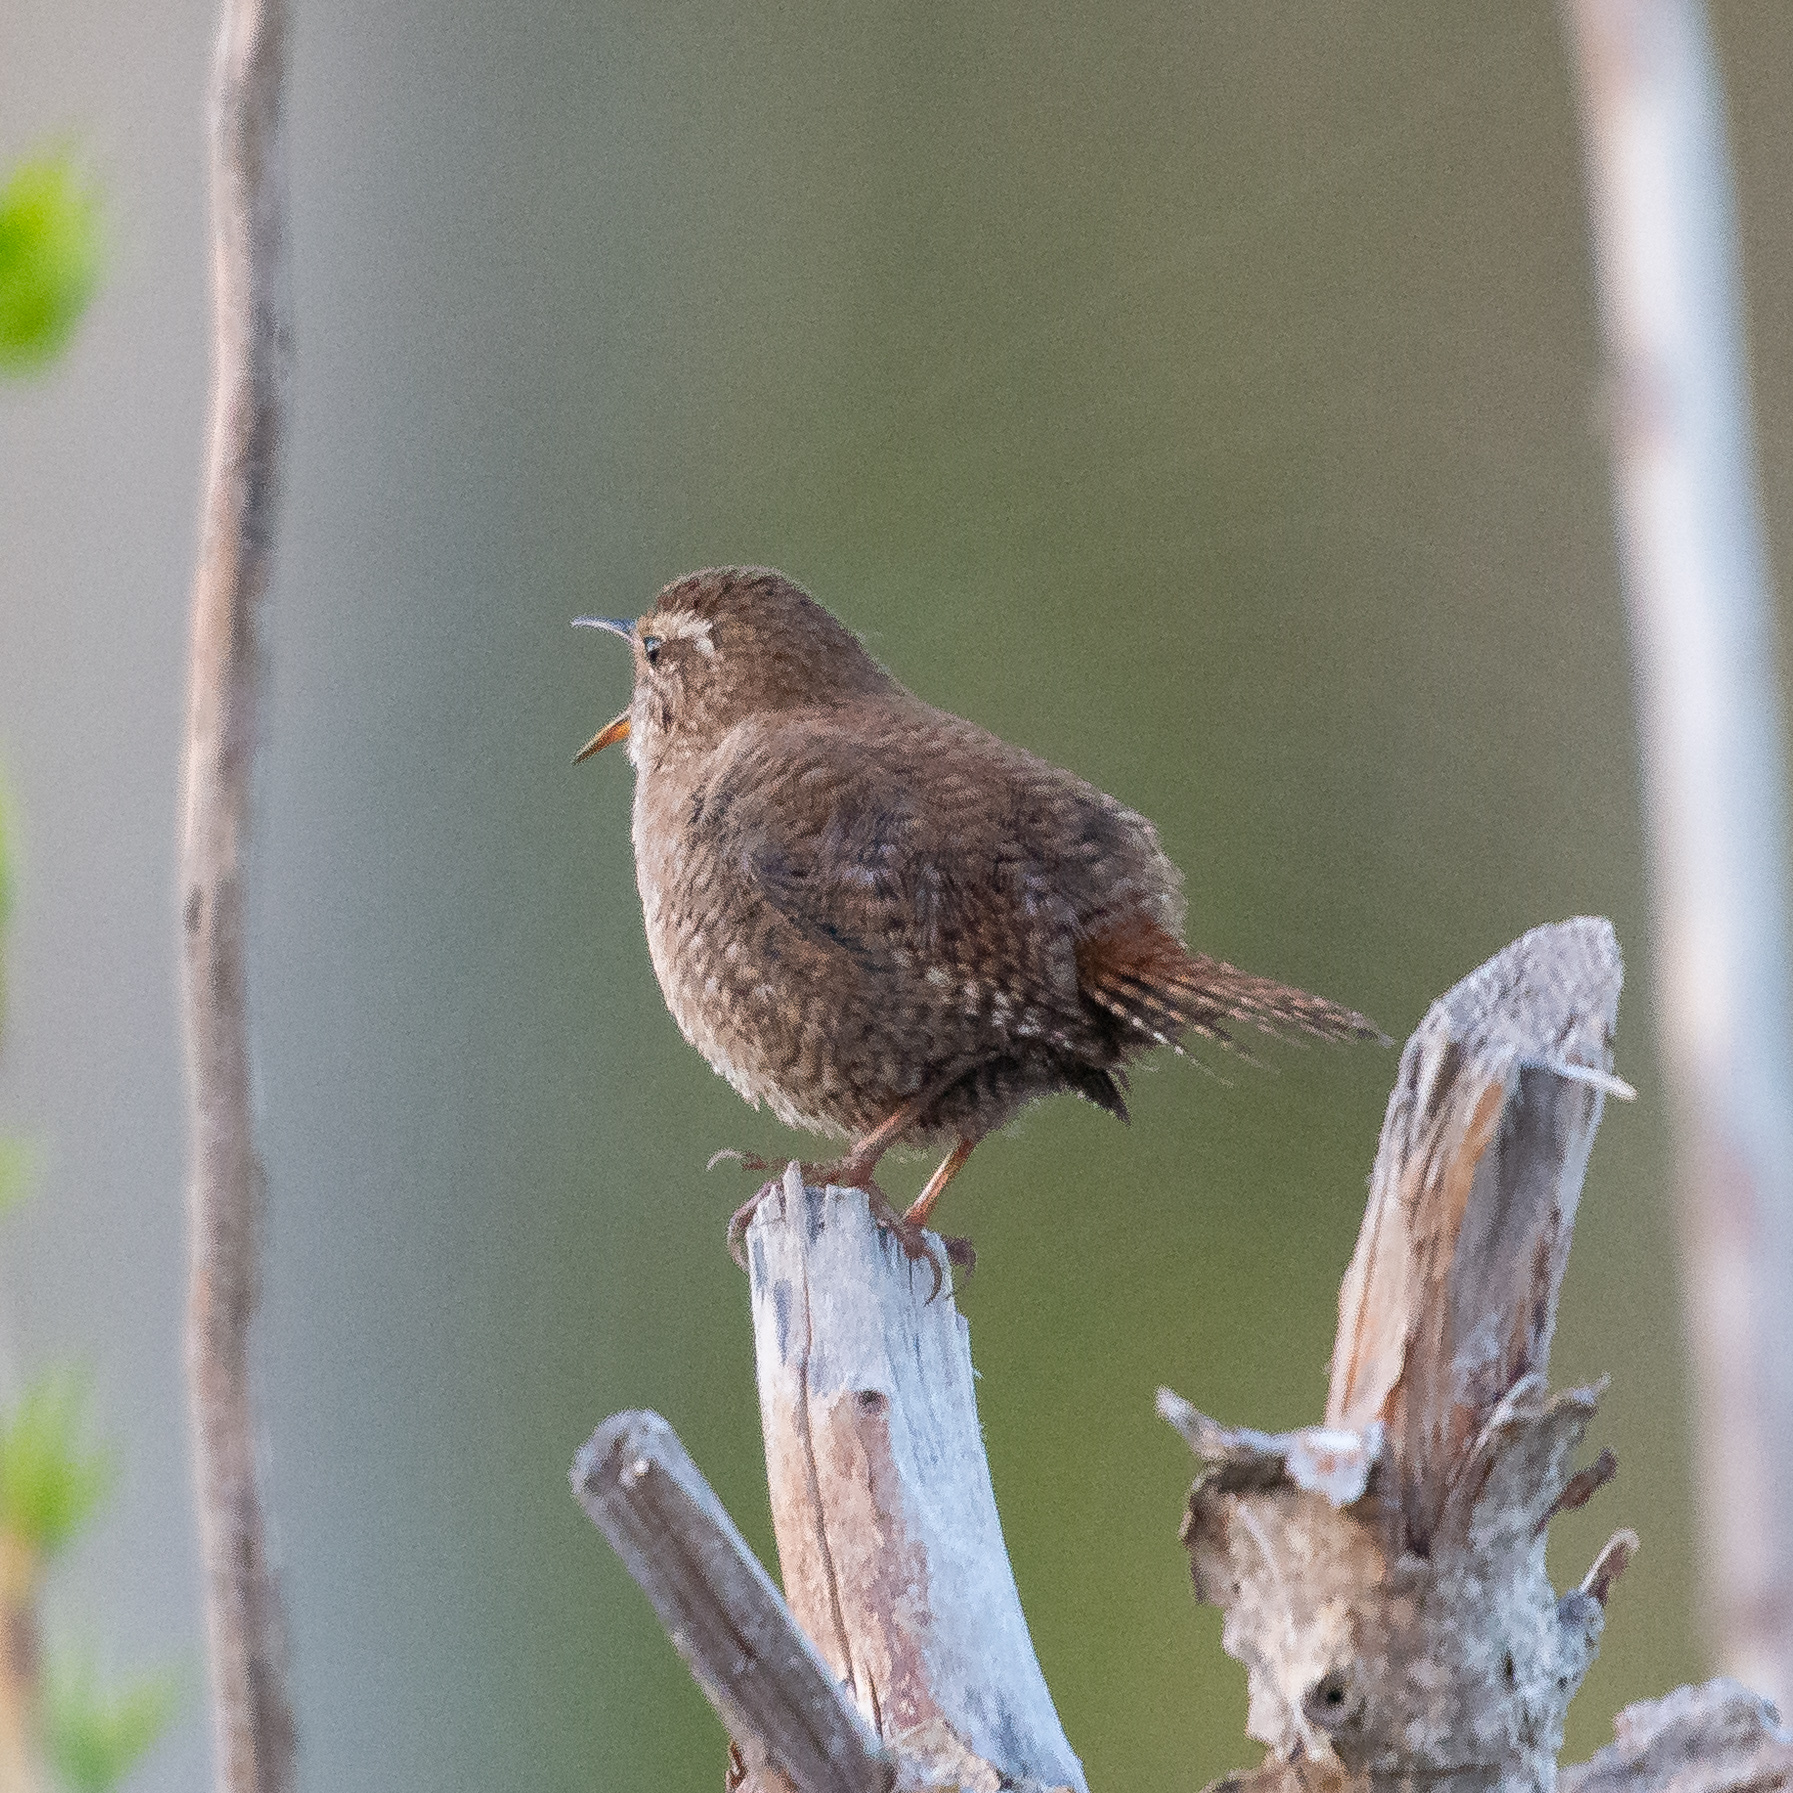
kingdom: Animalia
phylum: Chordata
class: Aves
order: Passeriformes
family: Troglodytidae
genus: Troglodytes
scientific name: Troglodytes troglodytes
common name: Eurasian wren
